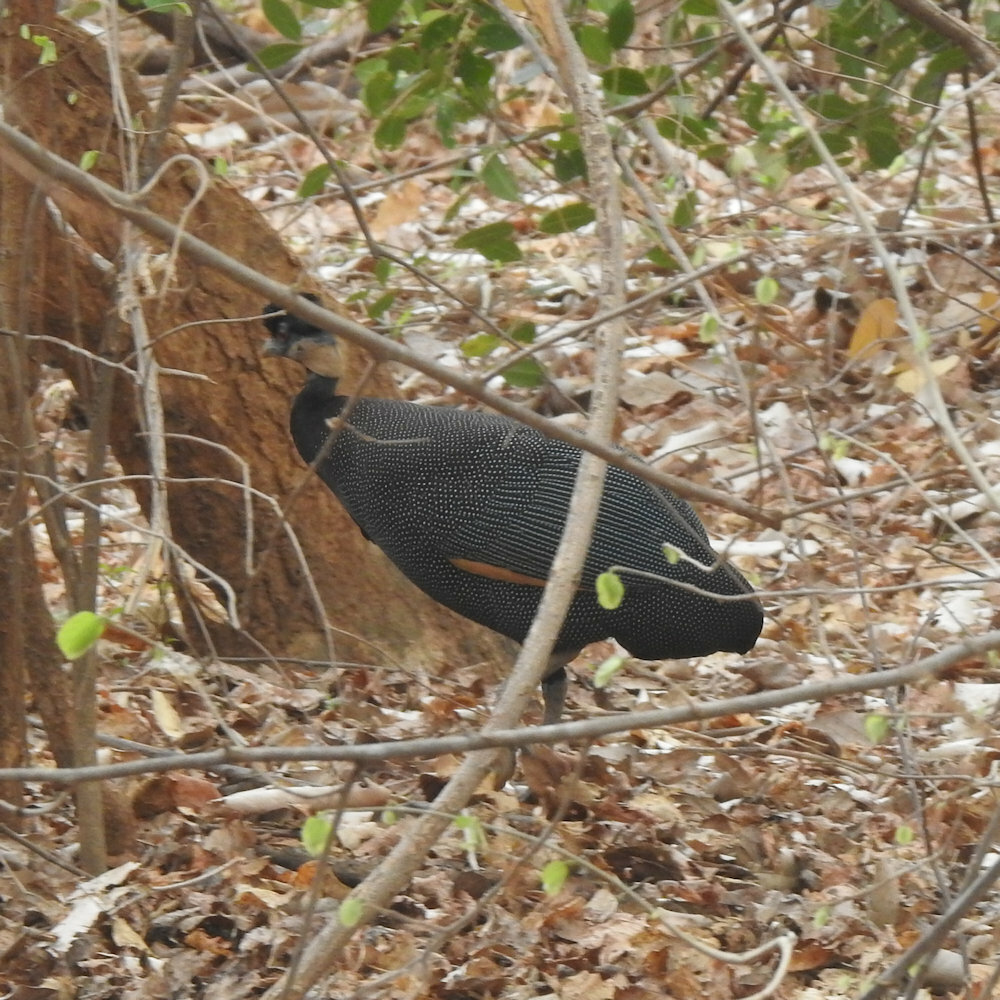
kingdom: Animalia
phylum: Chordata
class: Aves
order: Galliformes
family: Numididae
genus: Guttera
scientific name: Guttera pucherani
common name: Crested guineafowl
